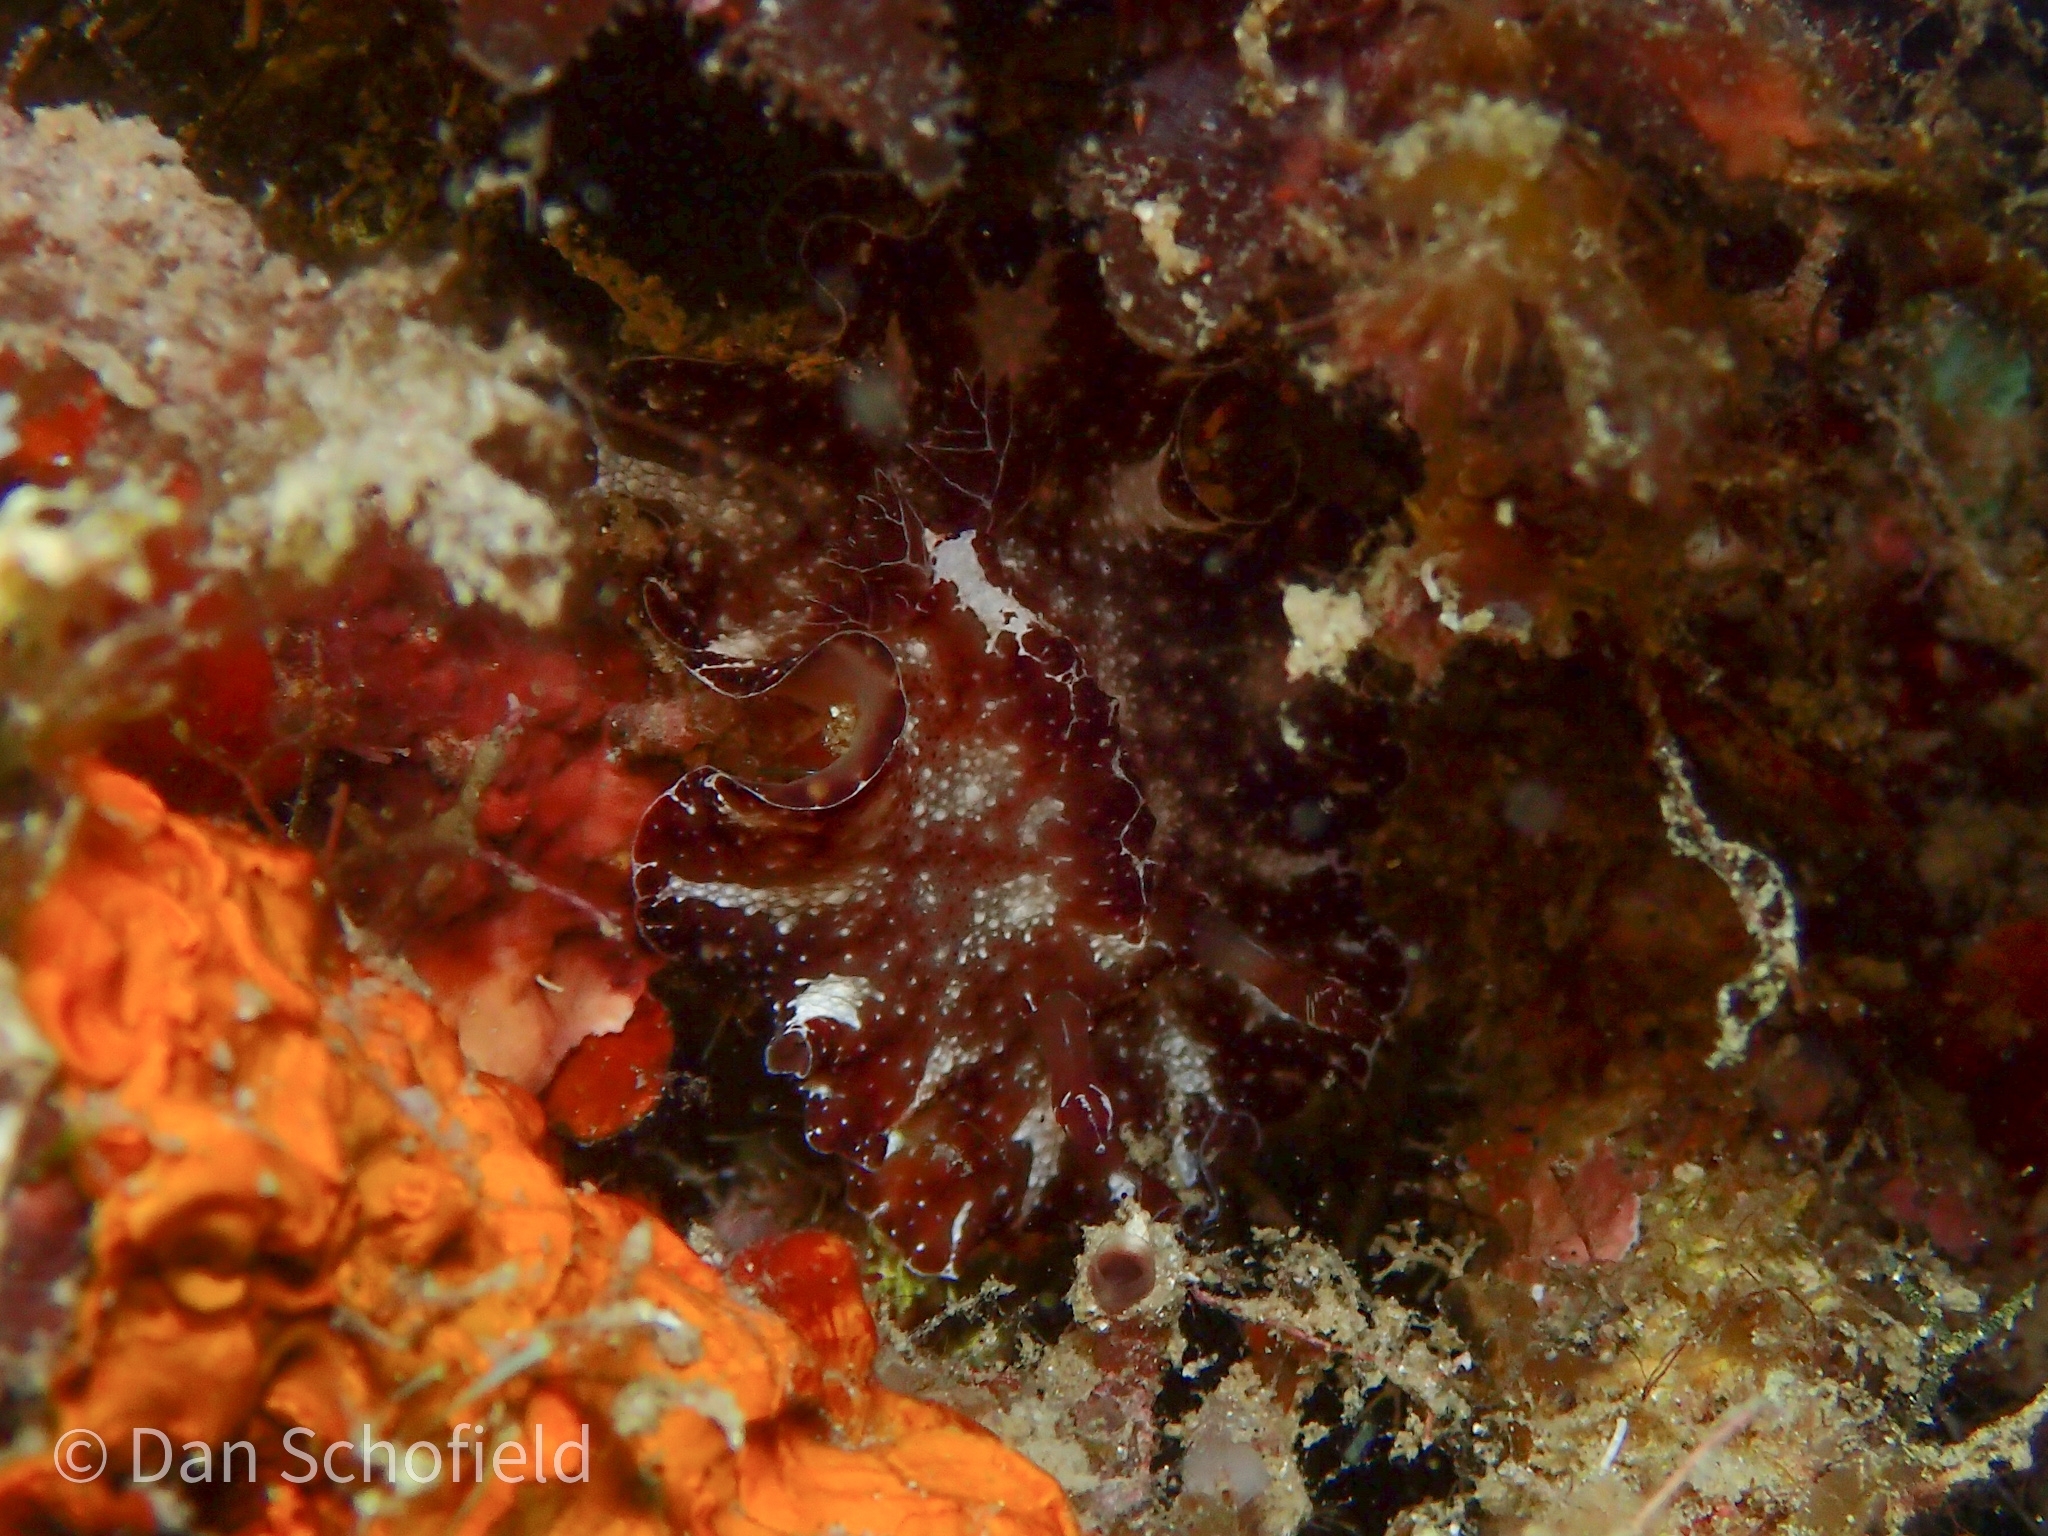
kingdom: Animalia
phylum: Mollusca
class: Gastropoda
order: Nudibranchia
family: Discodorididae
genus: Discodoris
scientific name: Discodoris boholiensis
